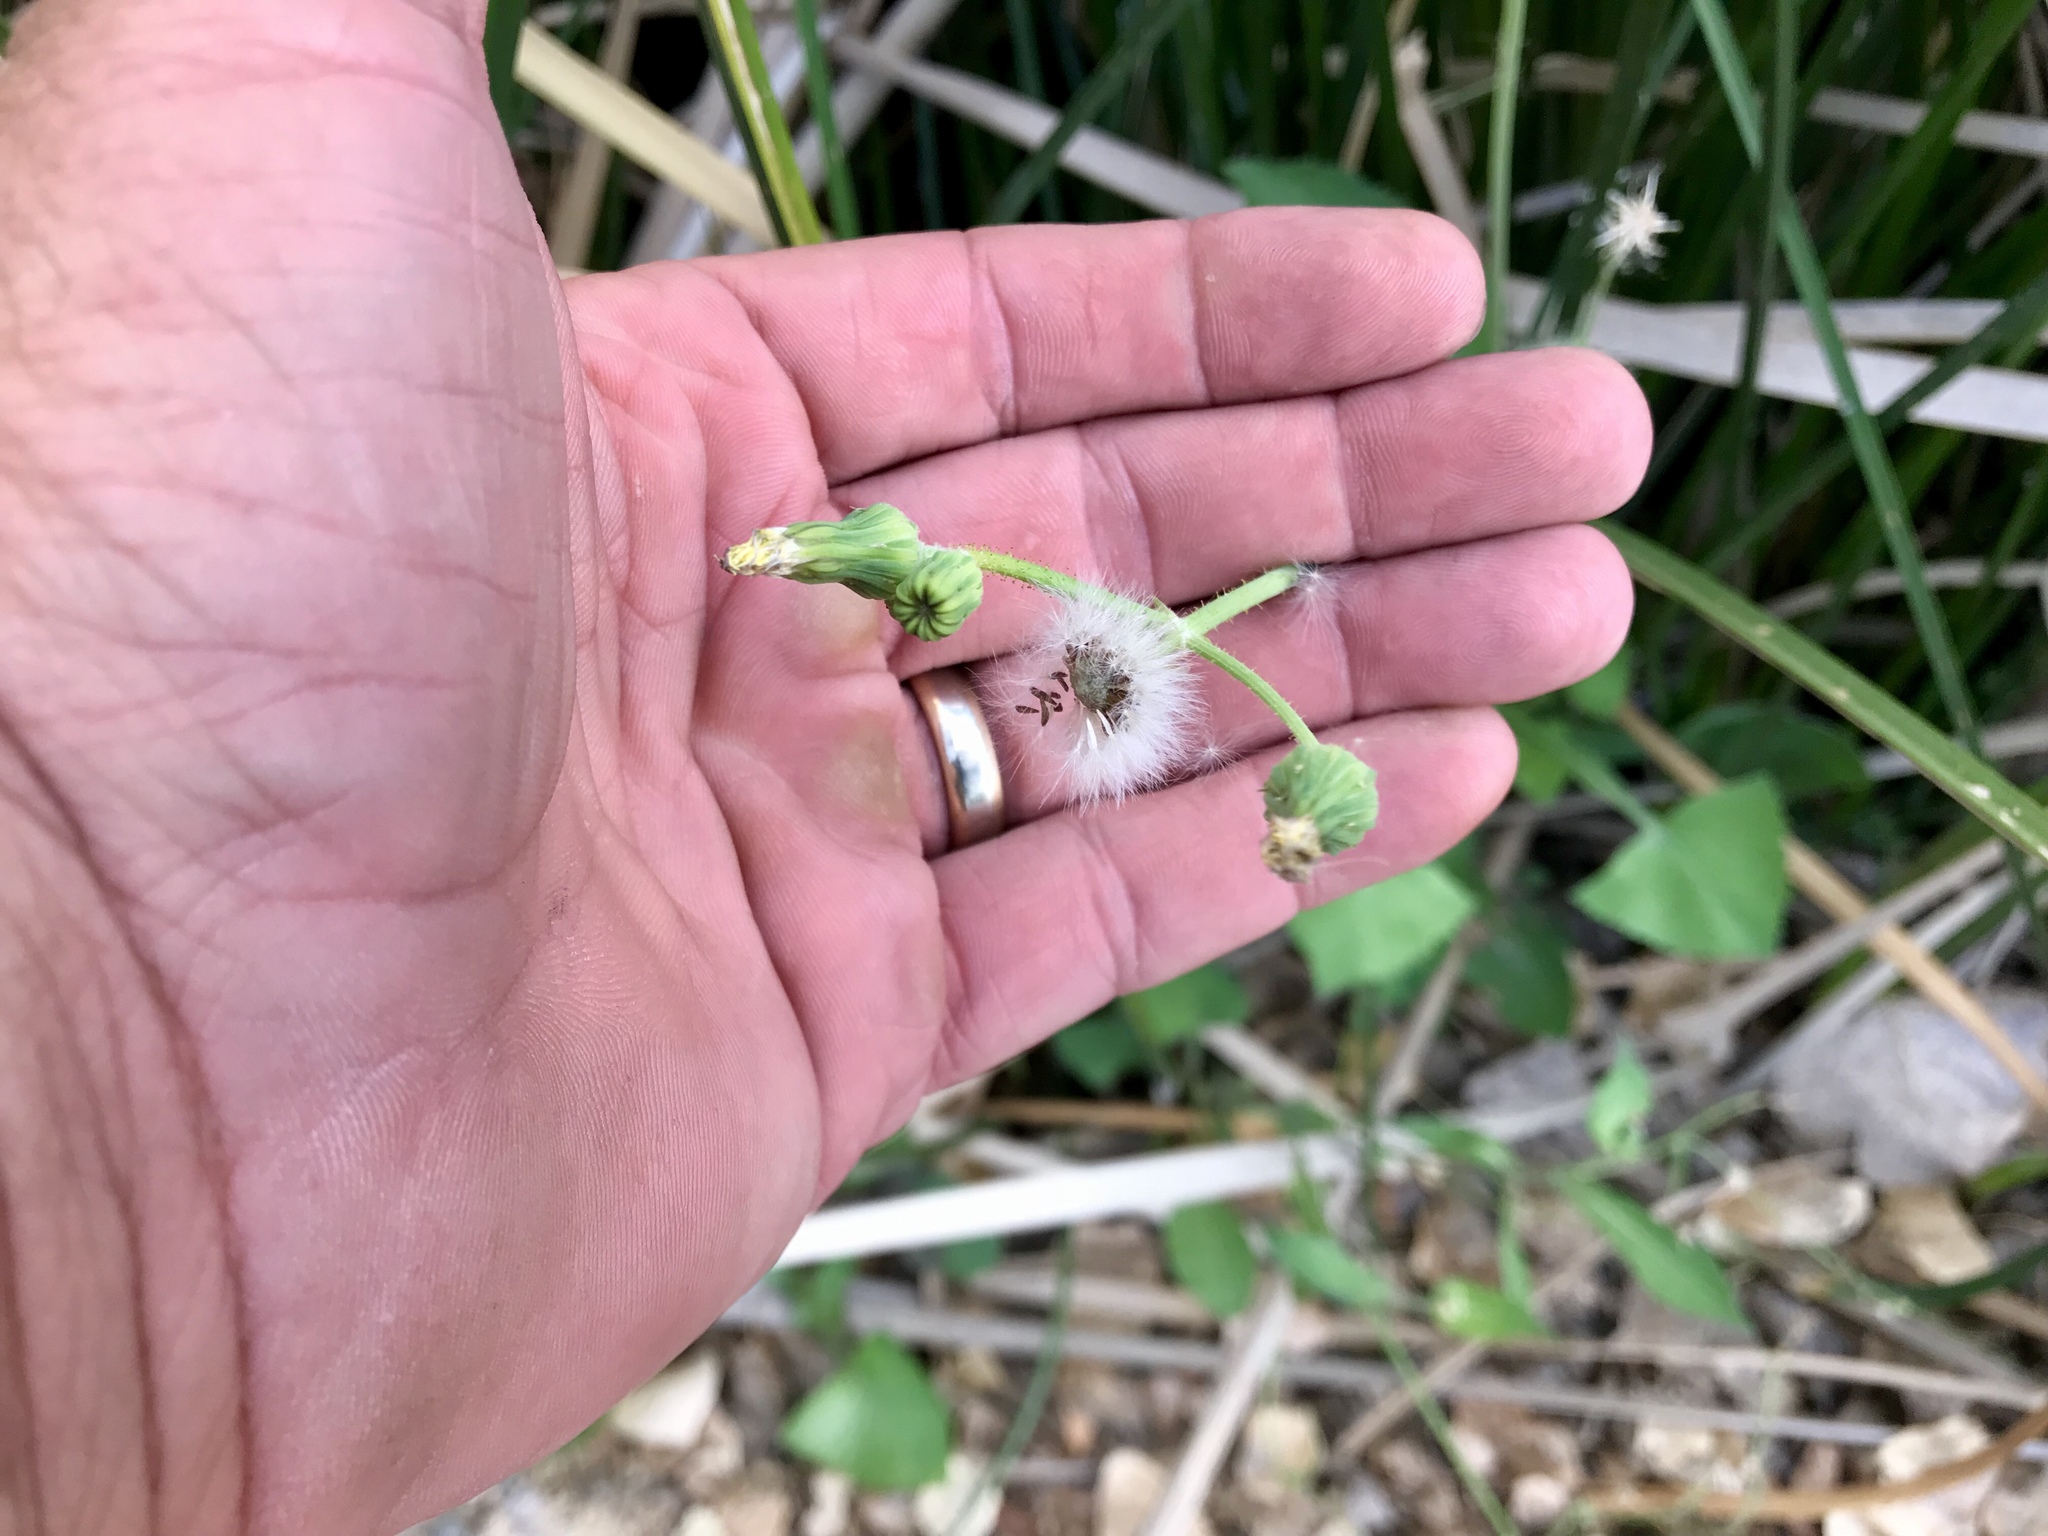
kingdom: Plantae
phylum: Tracheophyta
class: Magnoliopsida
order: Asterales
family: Asteraceae
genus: Sonchus
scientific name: Sonchus asper
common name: Prickly sow-thistle
